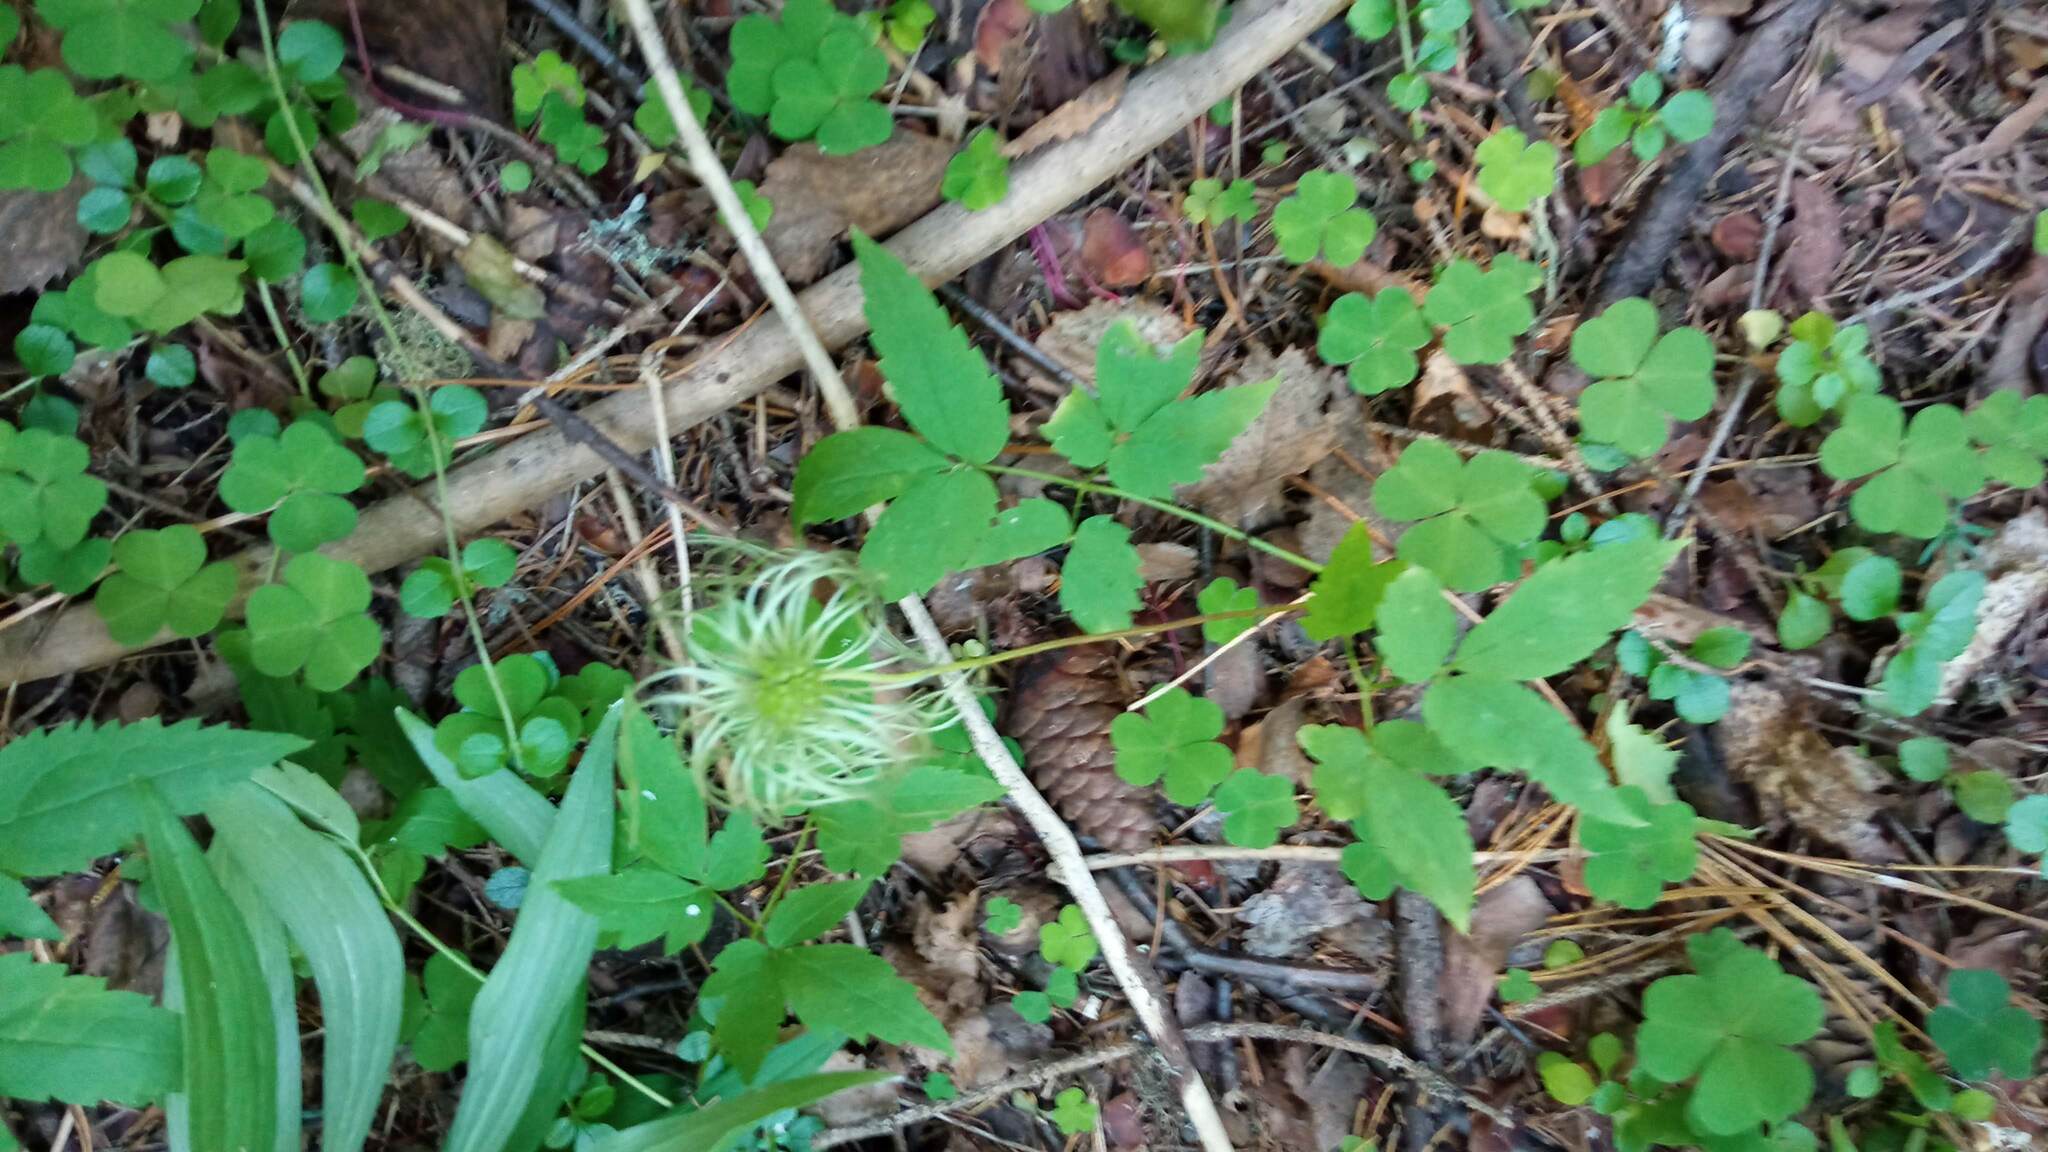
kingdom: Plantae
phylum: Tracheophyta
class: Magnoliopsida
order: Ranunculales
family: Ranunculaceae
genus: Clematis
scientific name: Clematis sibirica
